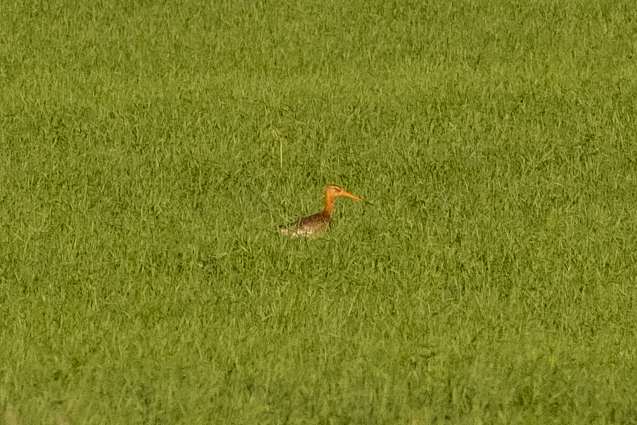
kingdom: Animalia
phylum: Chordata
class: Aves
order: Charadriiformes
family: Scolopacidae
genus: Limosa
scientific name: Limosa limosa
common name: Black-tailed godwit
